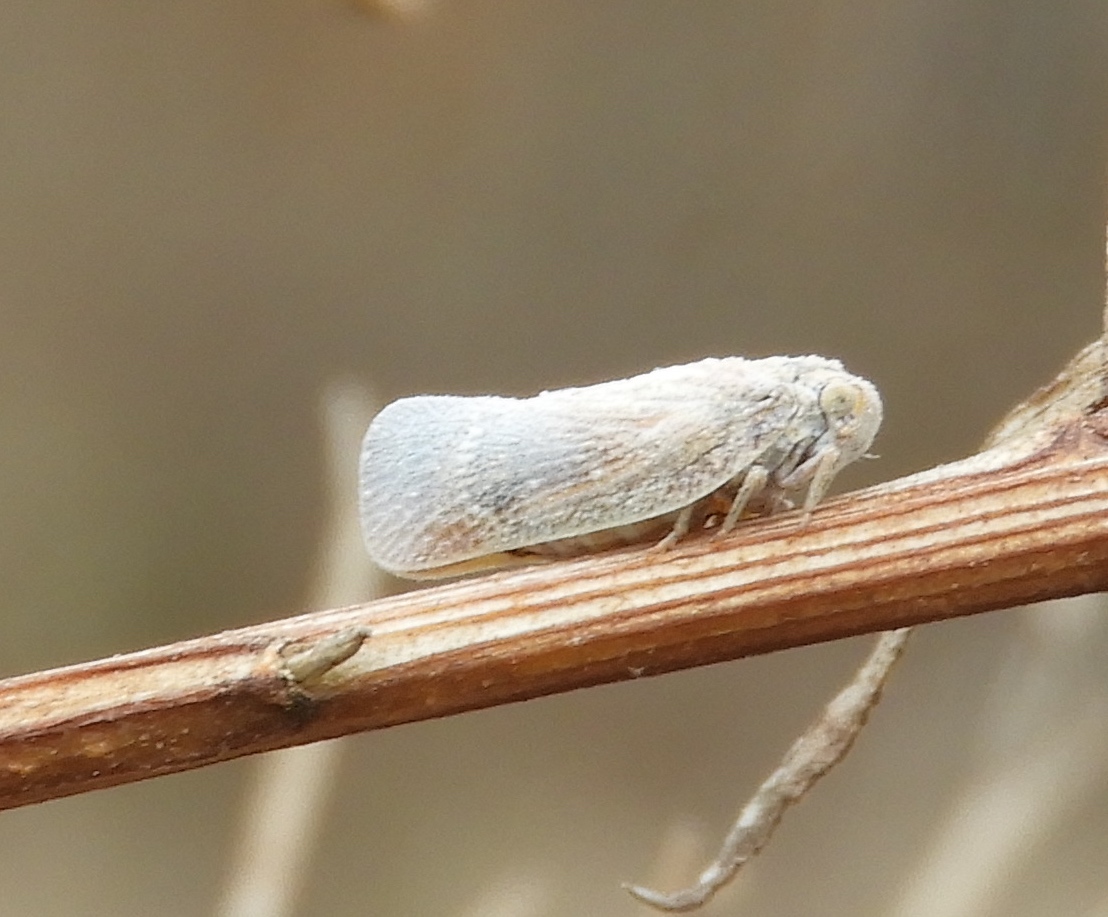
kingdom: Animalia
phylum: Arthropoda
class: Insecta
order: Hemiptera
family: Flatidae
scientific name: Flatidae
